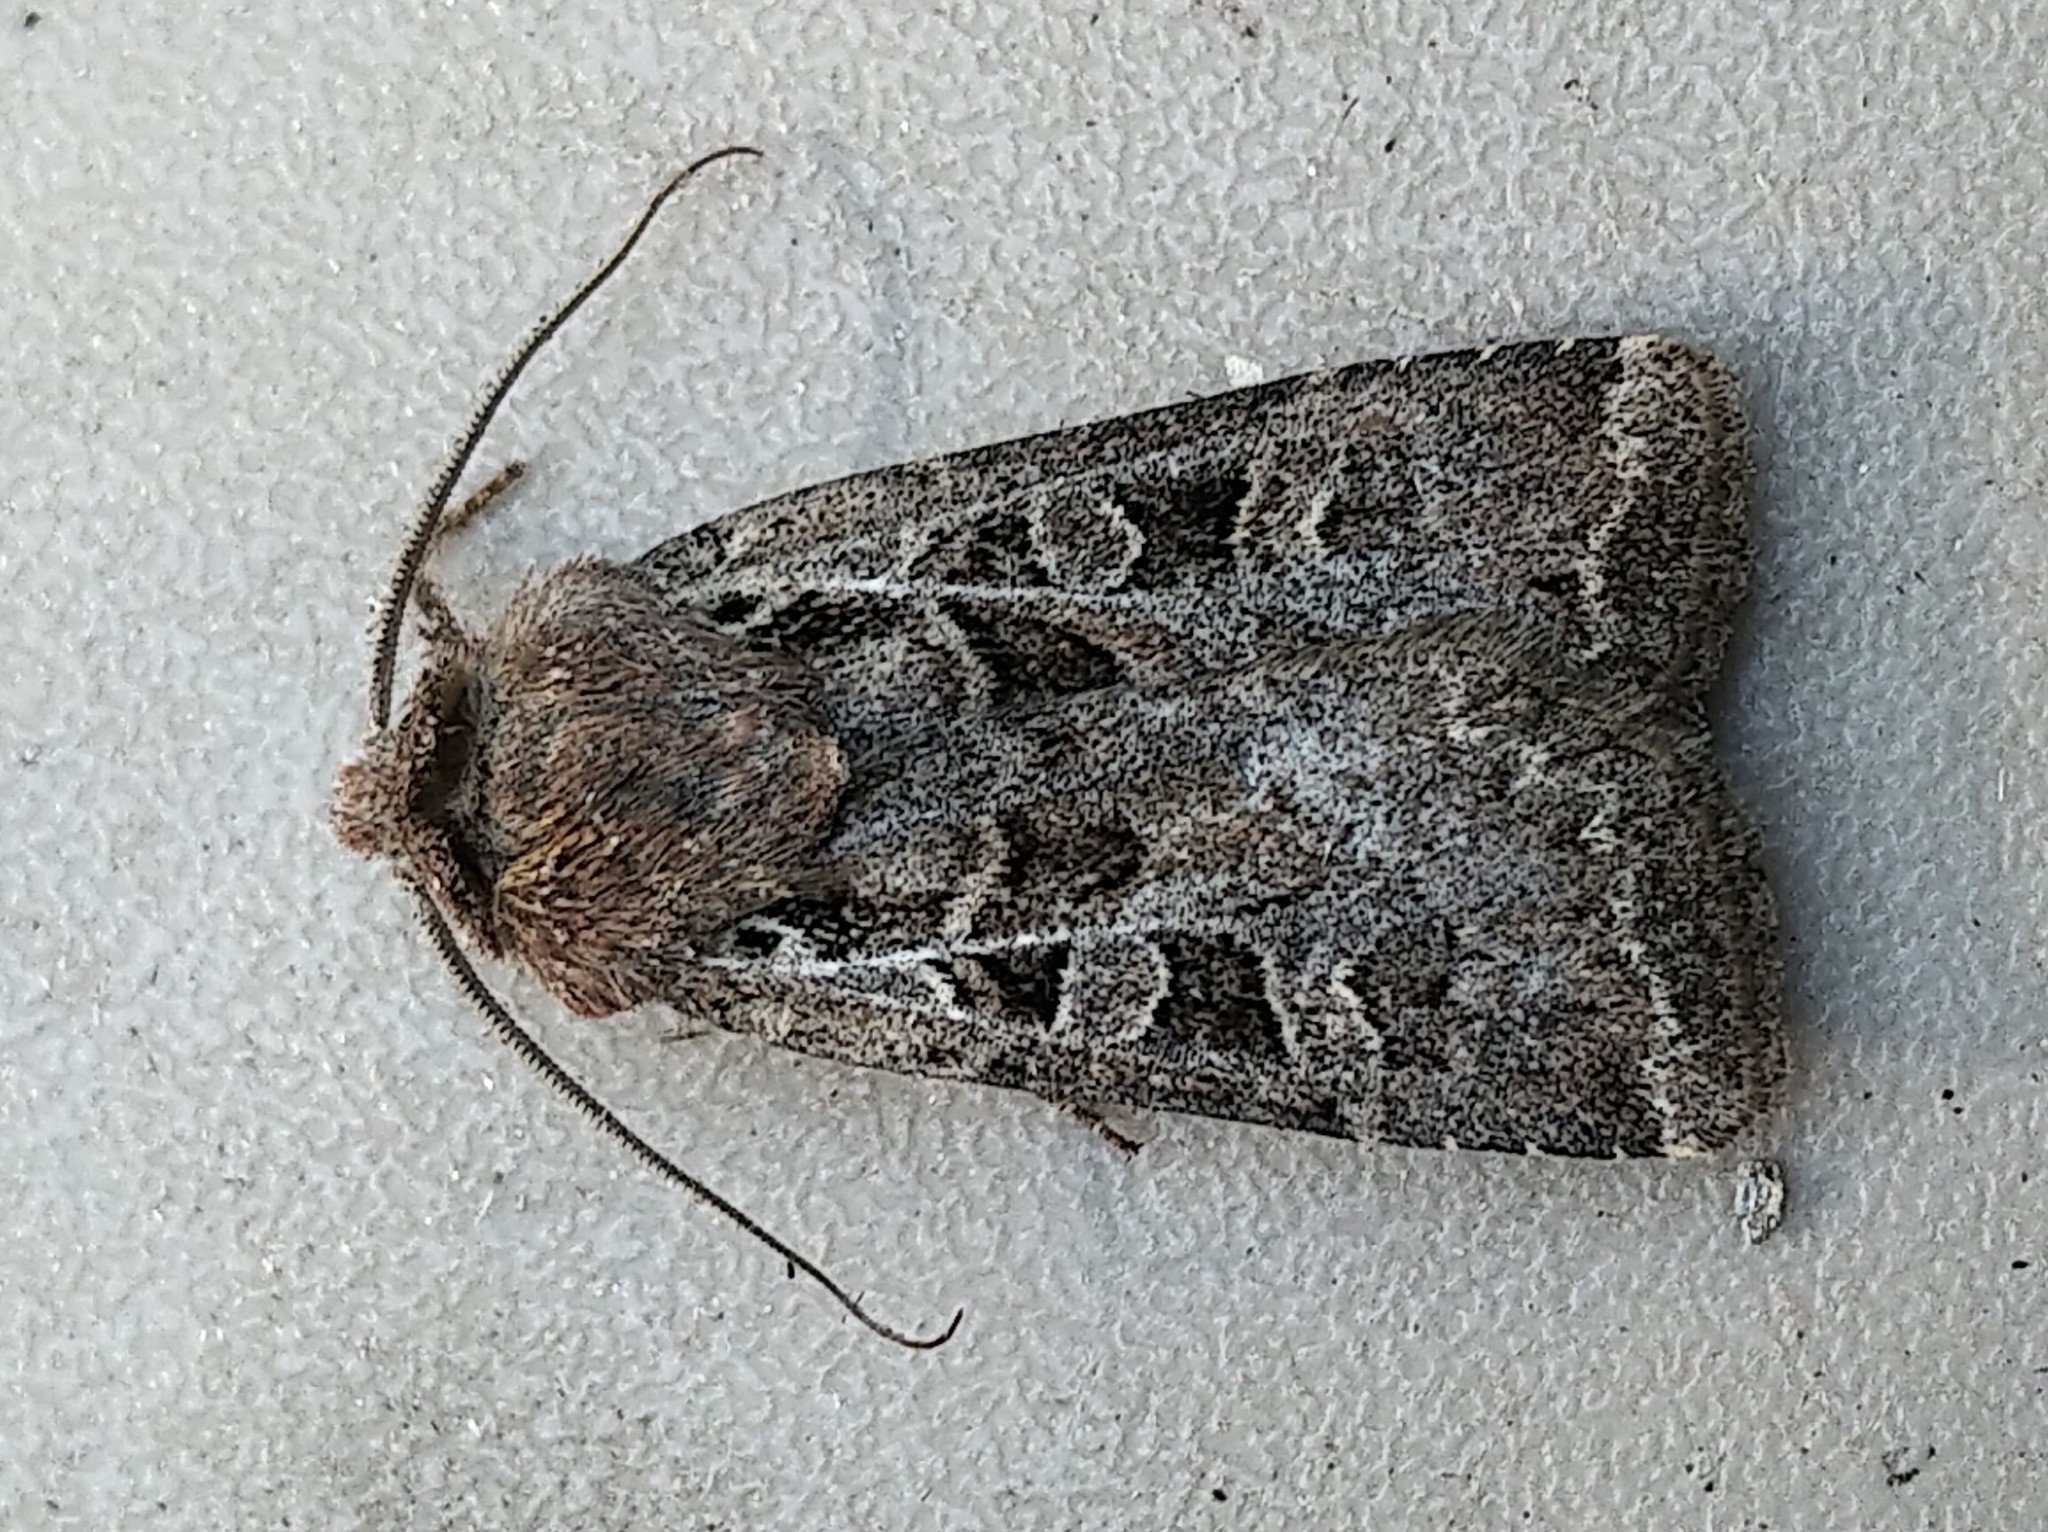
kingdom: Animalia
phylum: Arthropoda
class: Insecta
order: Lepidoptera
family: Noctuidae
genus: Euxoa
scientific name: Euxoa rufula
